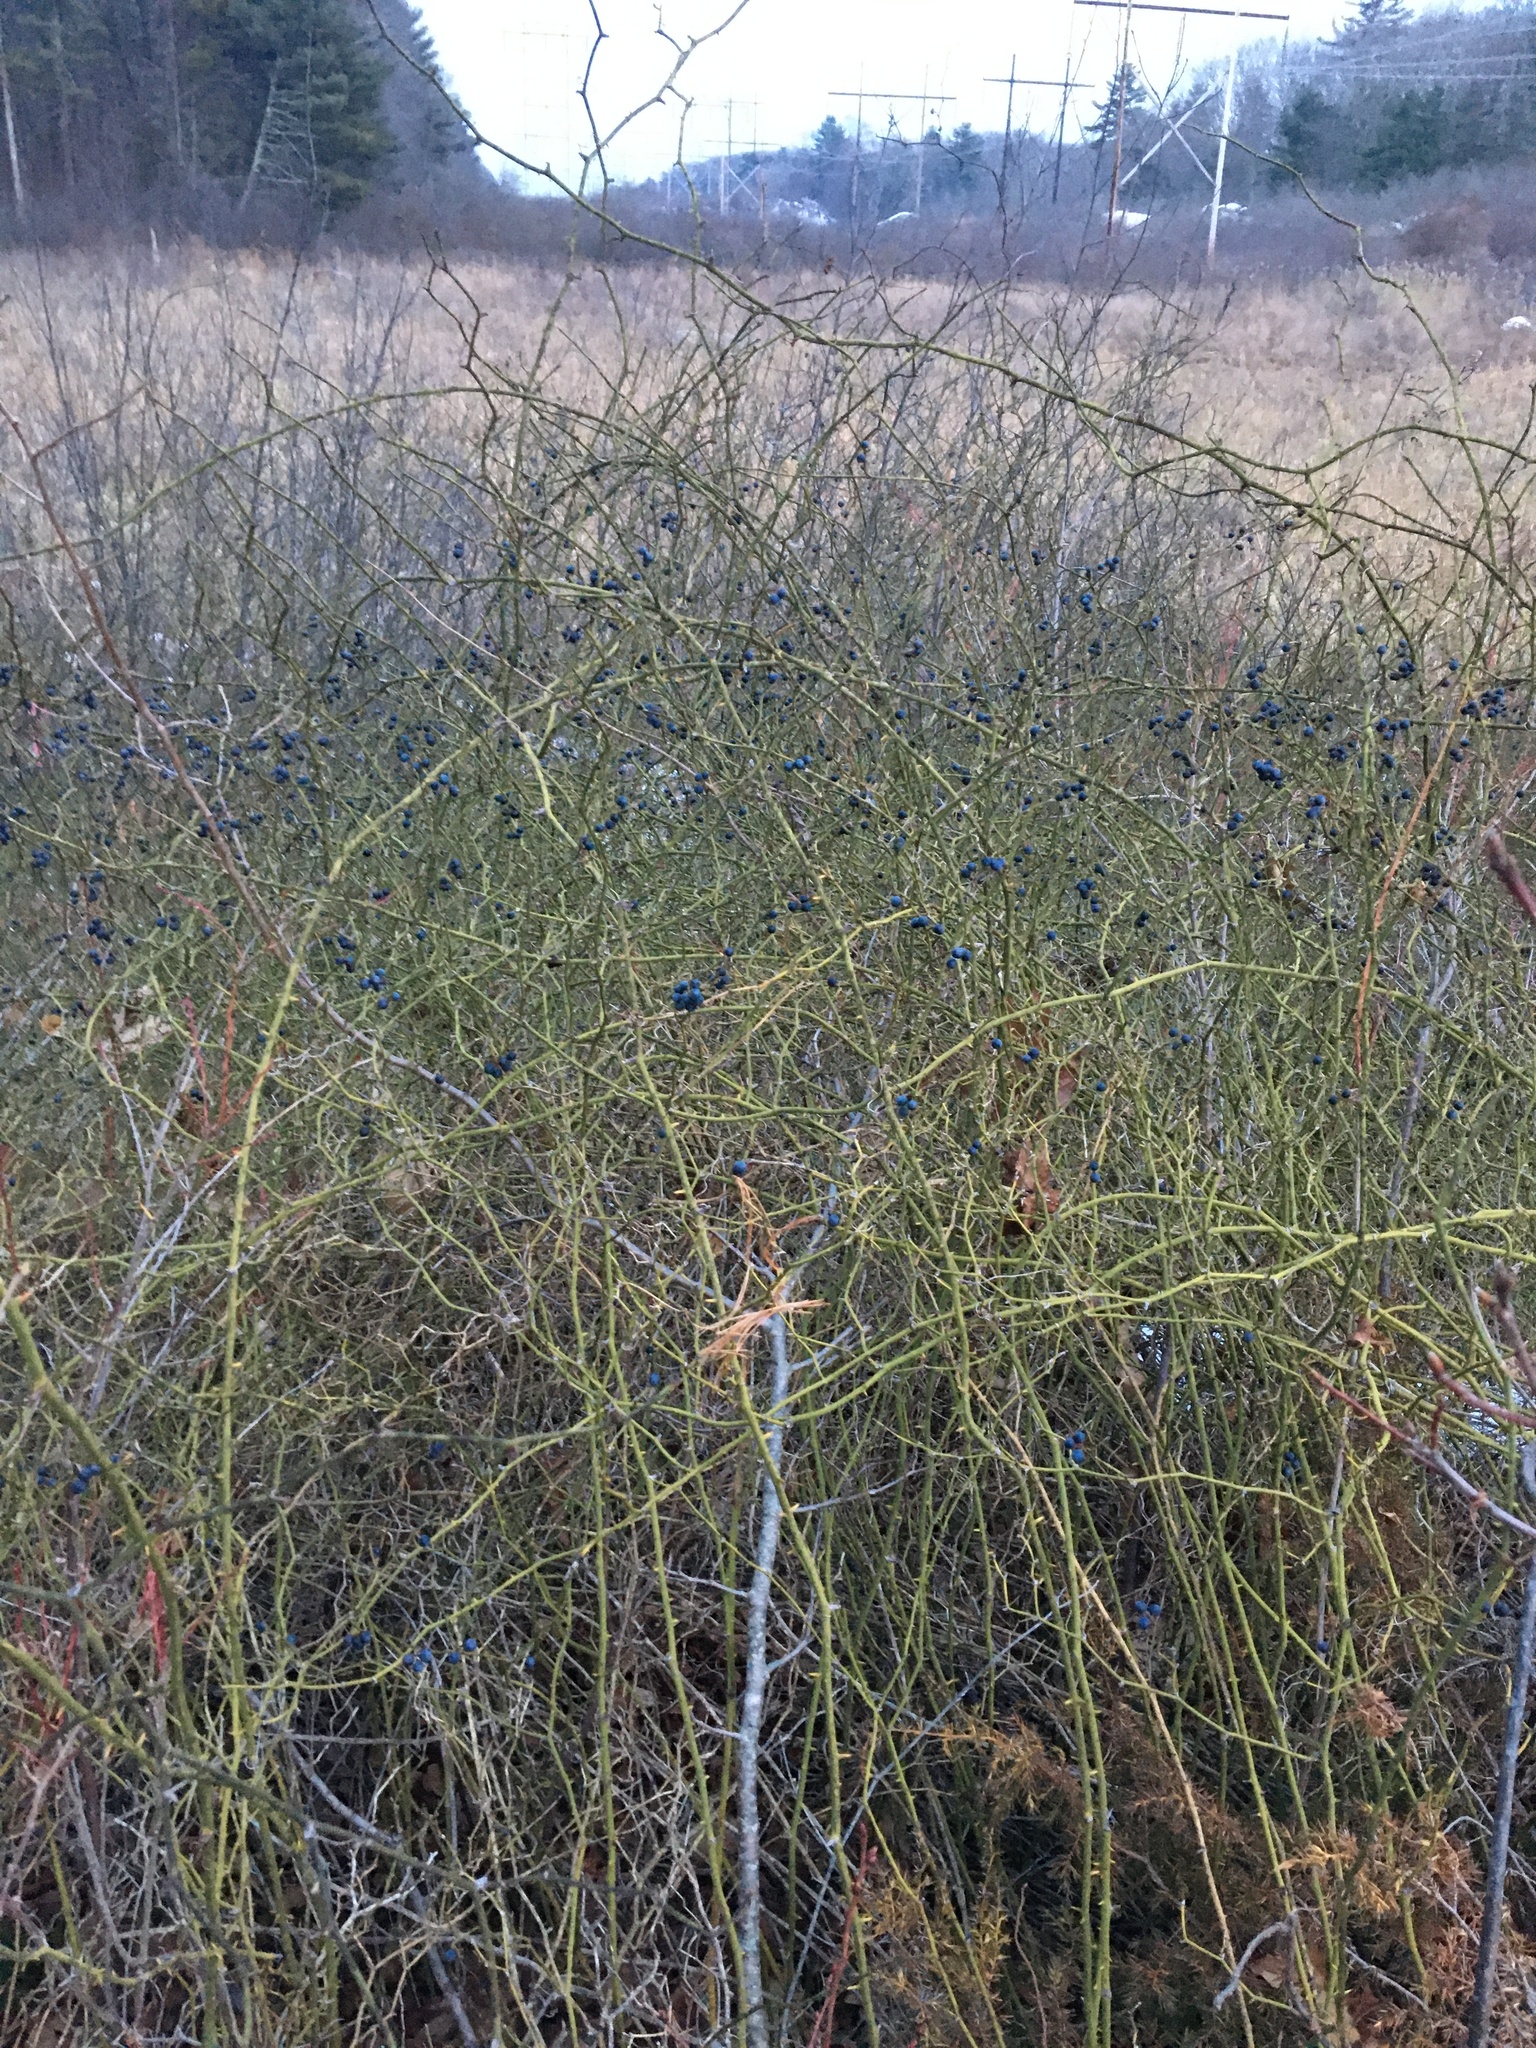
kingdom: Plantae
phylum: Tracheophyta
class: Liliopsida
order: Liliales
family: Smilacaceae
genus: Smilax
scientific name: Smilax rotundifolia
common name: Bullbriar
